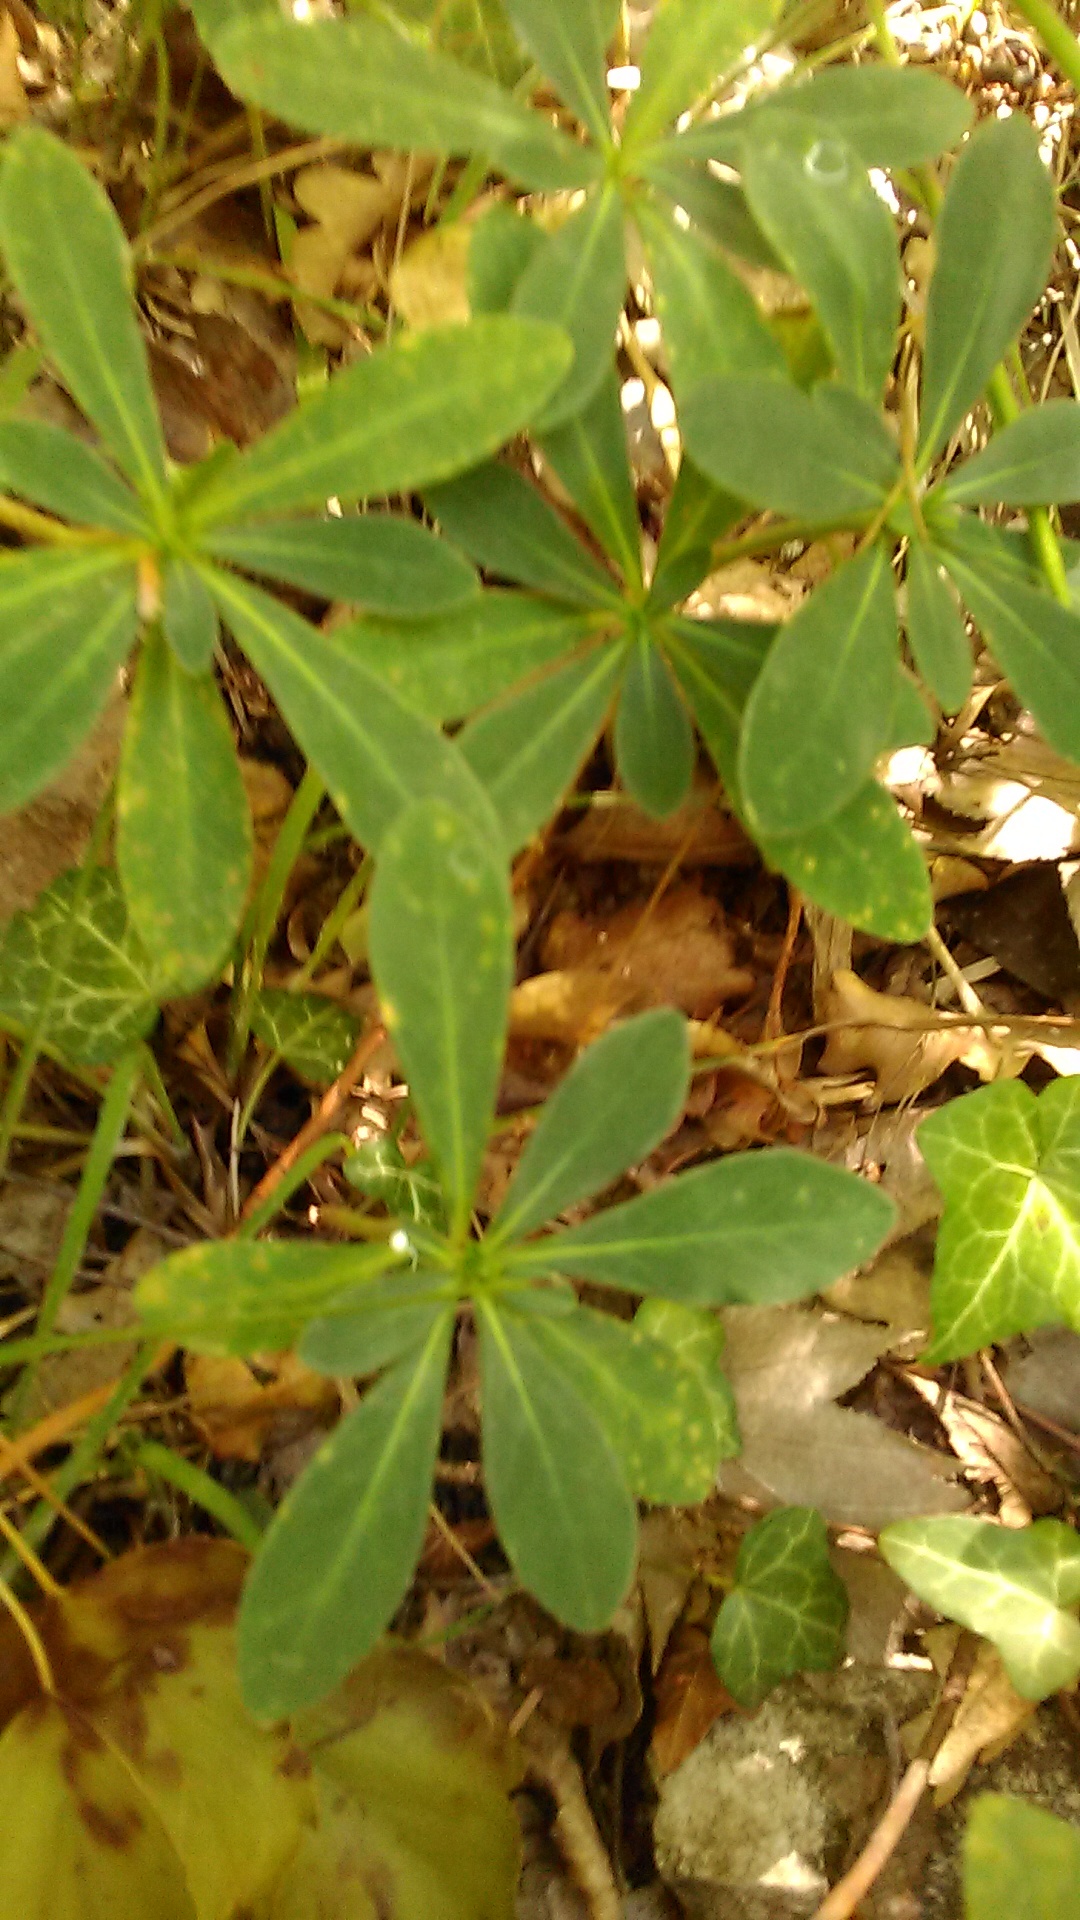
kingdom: Plantae
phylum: Tracheophyta
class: Magnoliopsida
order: Malpighiales
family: Euphorbiaceae
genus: Euphorbia
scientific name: Euphorbia amygdaloides
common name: Wood spurge
